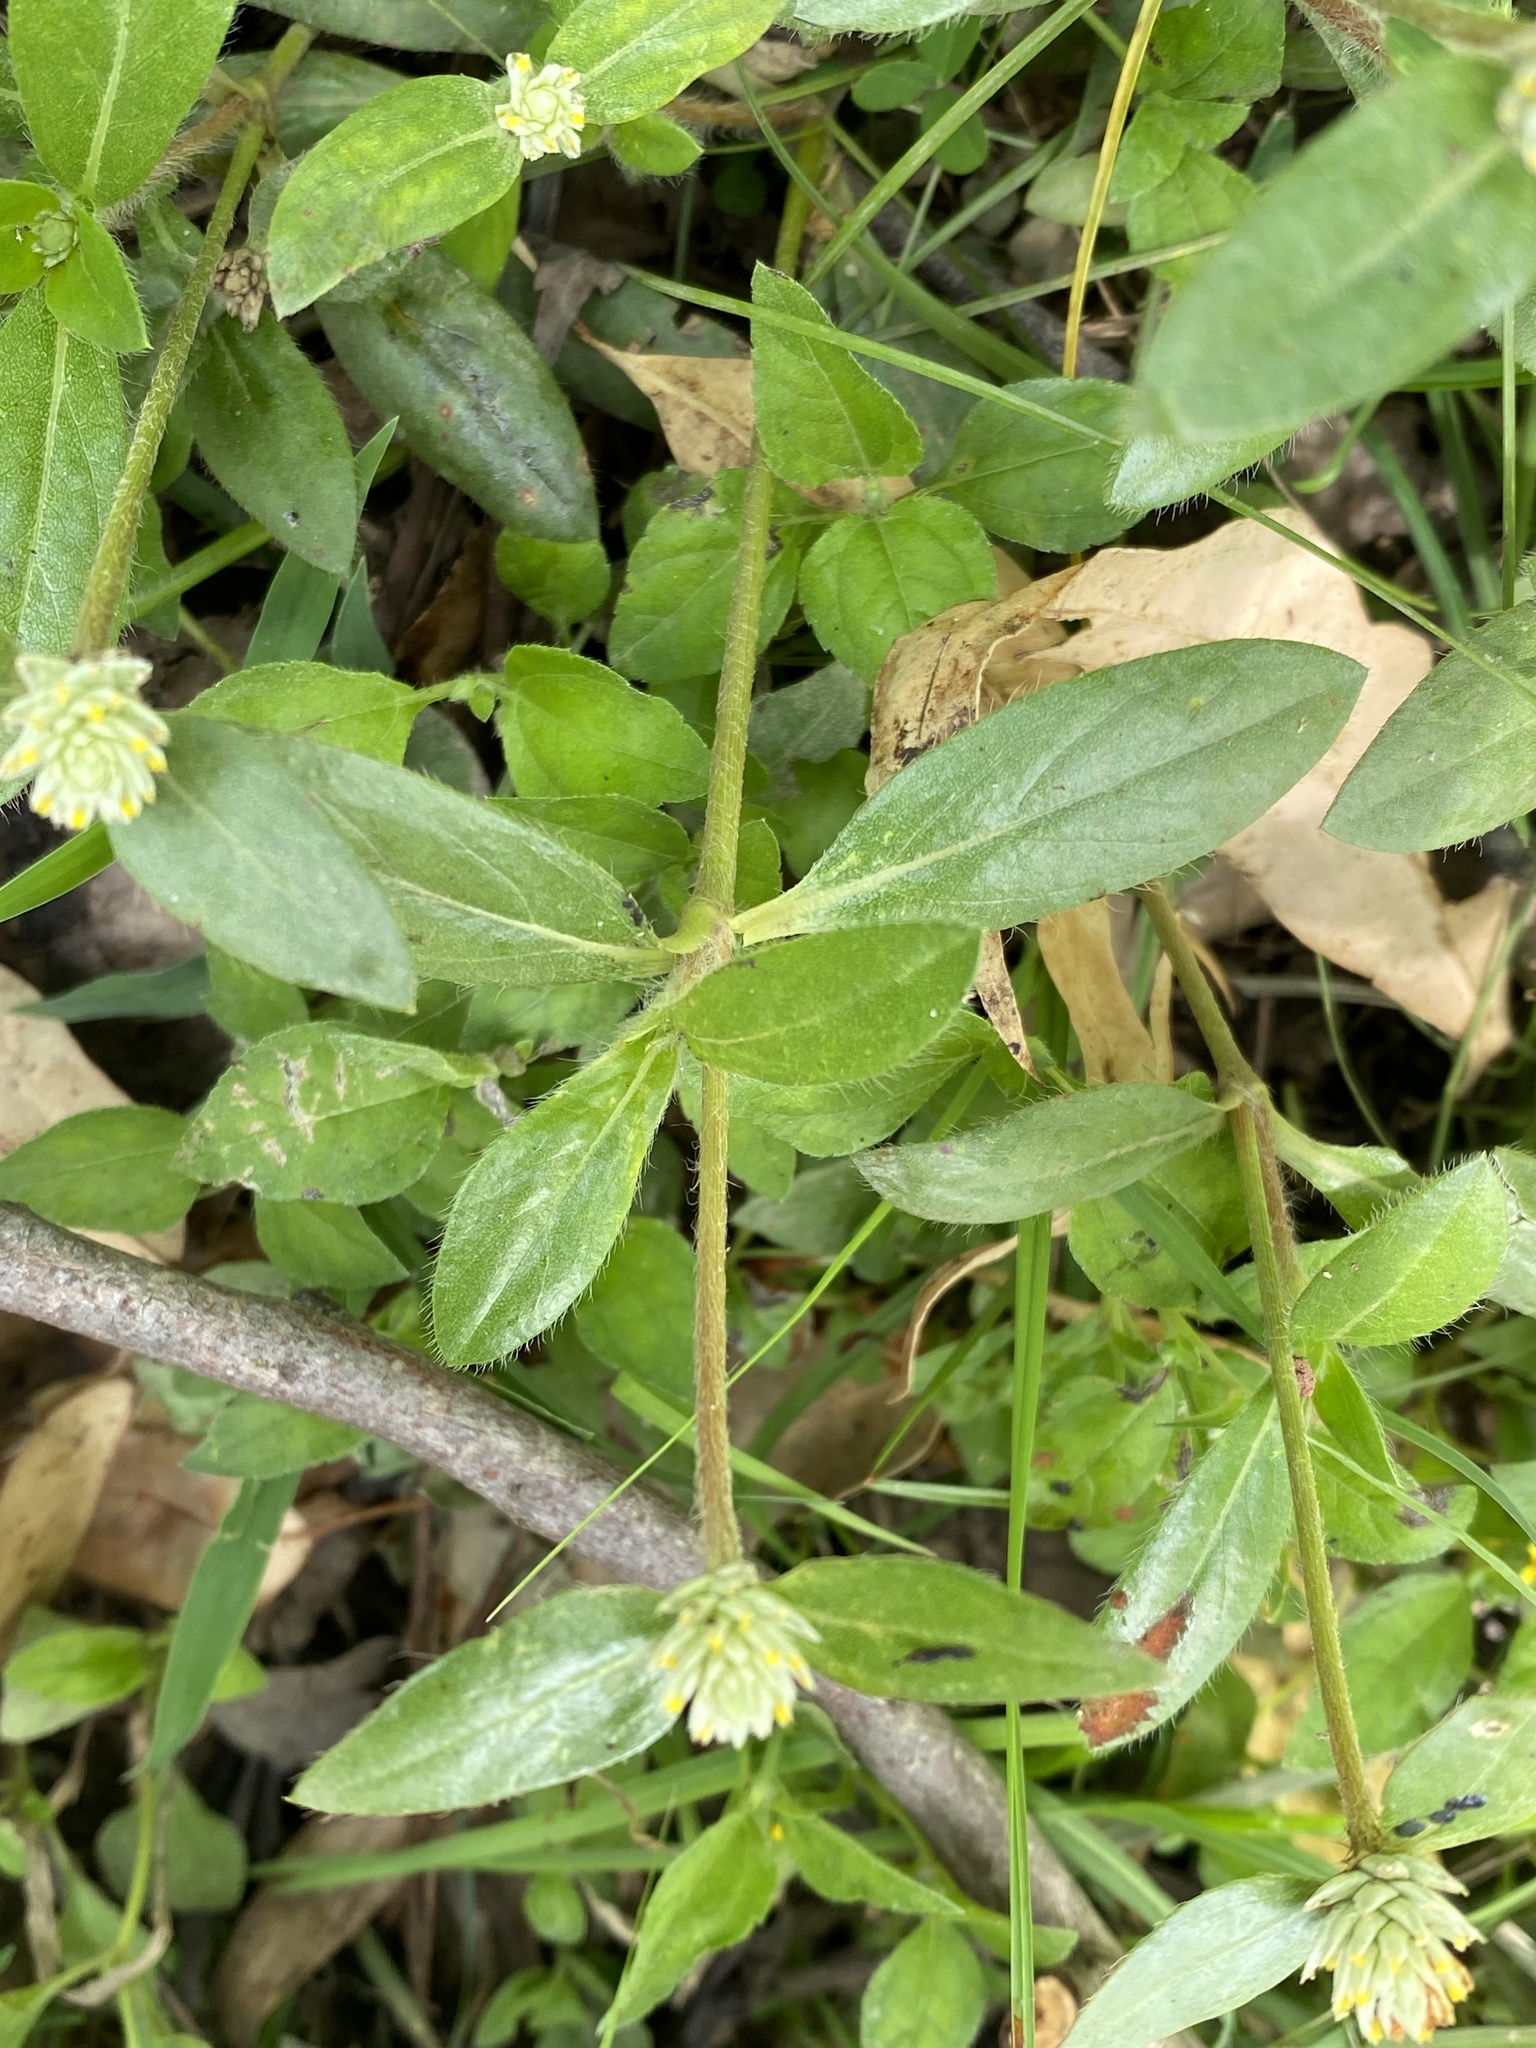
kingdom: Plantae
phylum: Tracheophyta
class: Magnoliopsida
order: Caryophyllales
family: Amaranthaceae
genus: Gomphrena
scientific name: Gomphrena celosioides
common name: Gomphrena-weed
